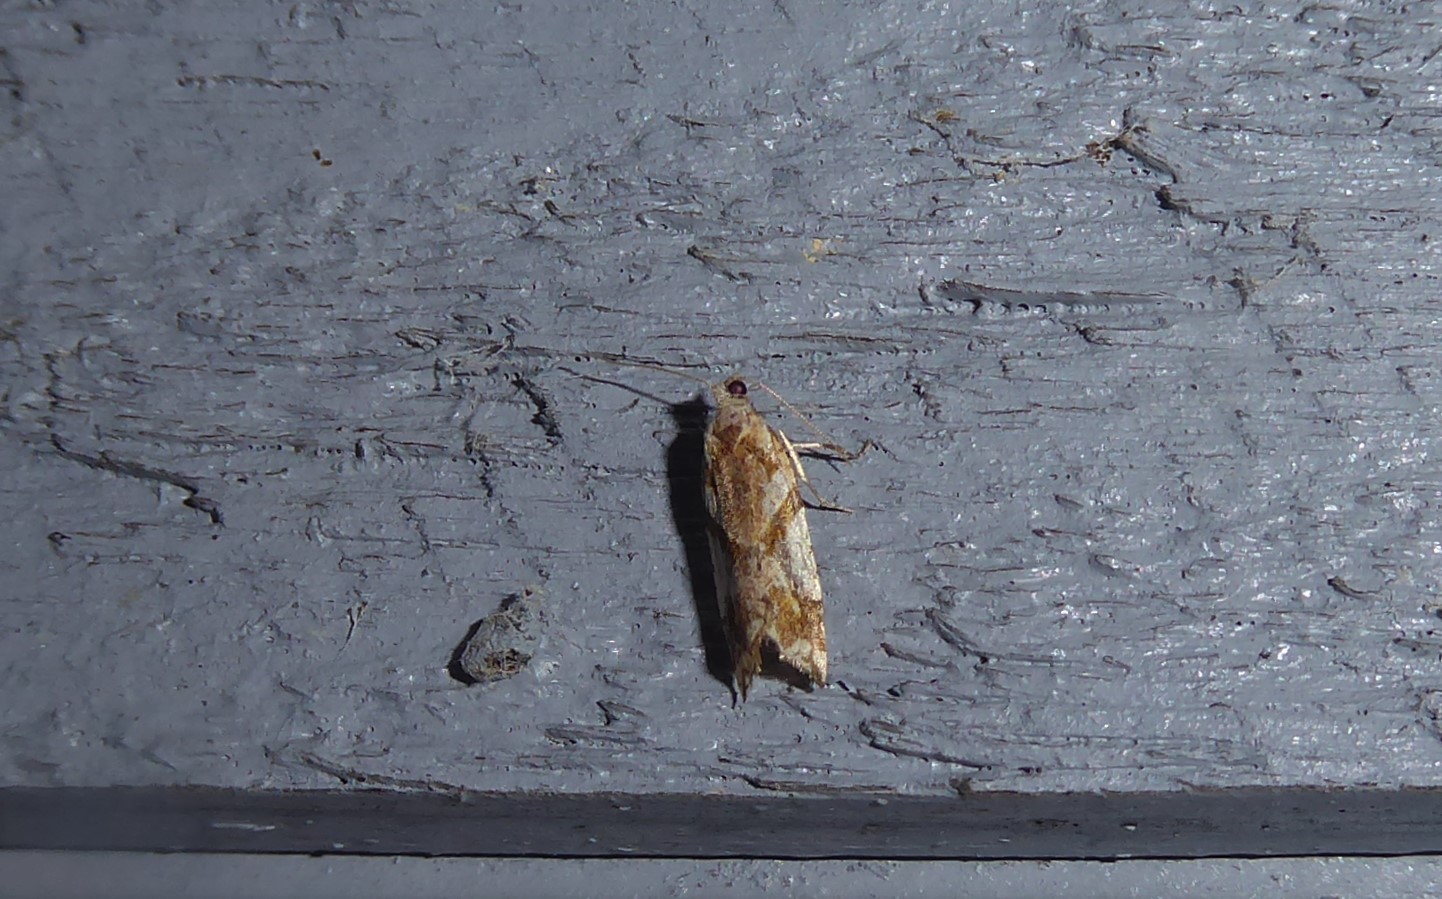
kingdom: Animalia
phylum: Arthropoda
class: Insecta
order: Lepidoptera
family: Tortricidae
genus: Pyrgotis
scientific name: Pyrgotis plagiatana
